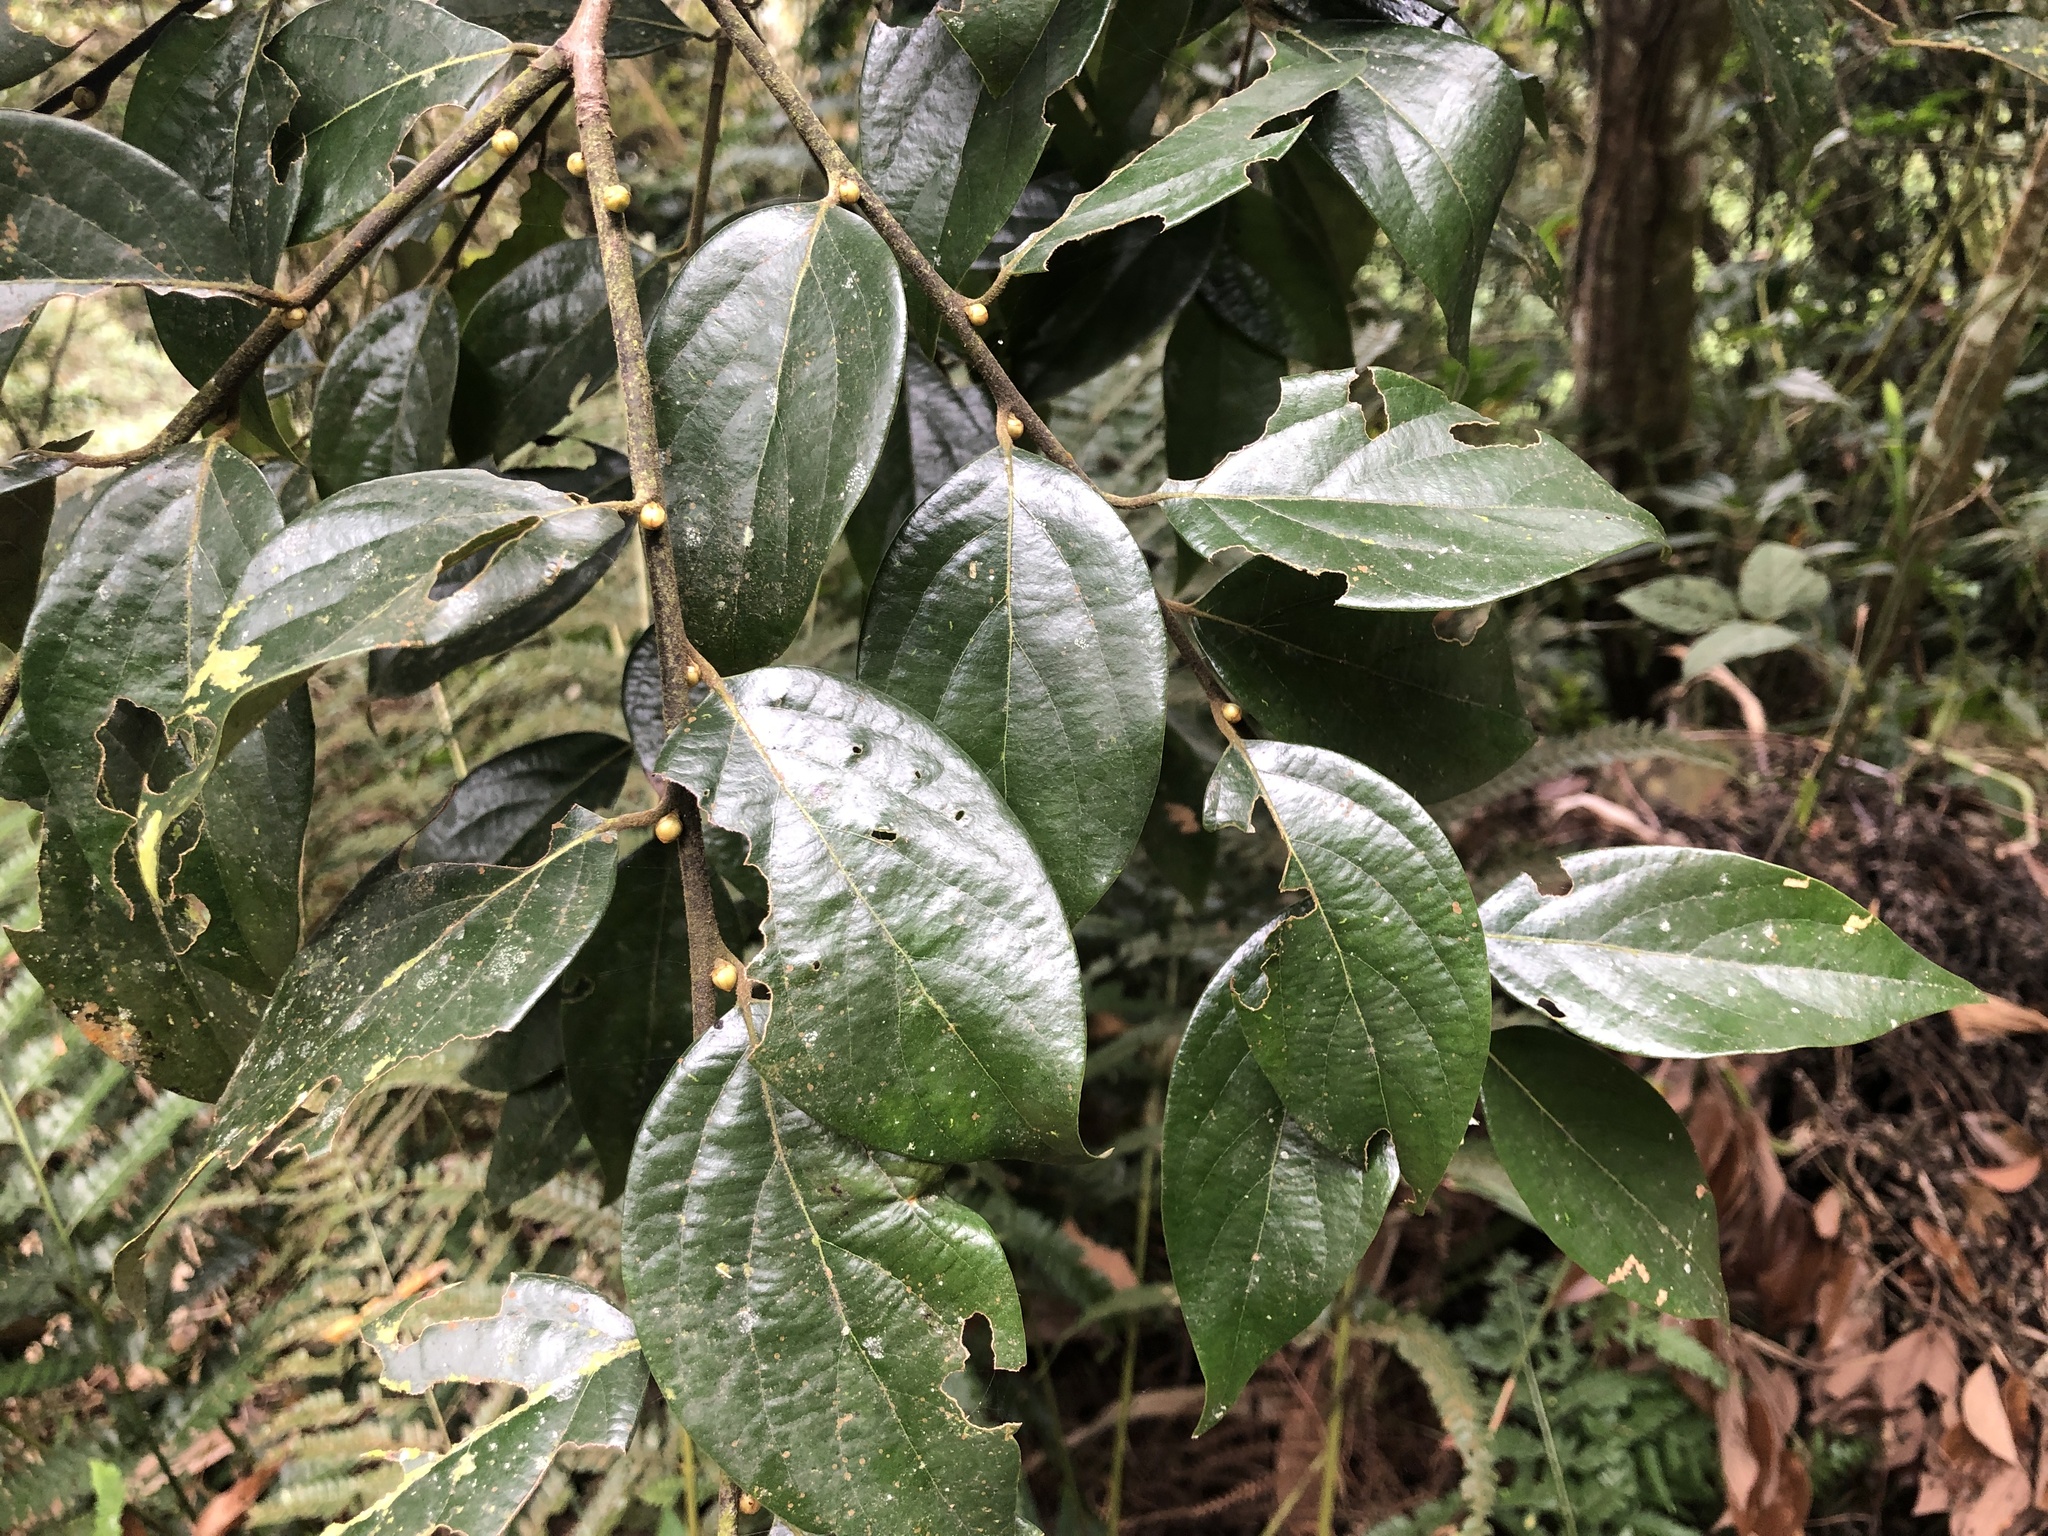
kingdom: Plantae
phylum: Tracheophyta
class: Magnoliopsida
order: Laurales
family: Lauraceae
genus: Lindera
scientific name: Lindera communis
